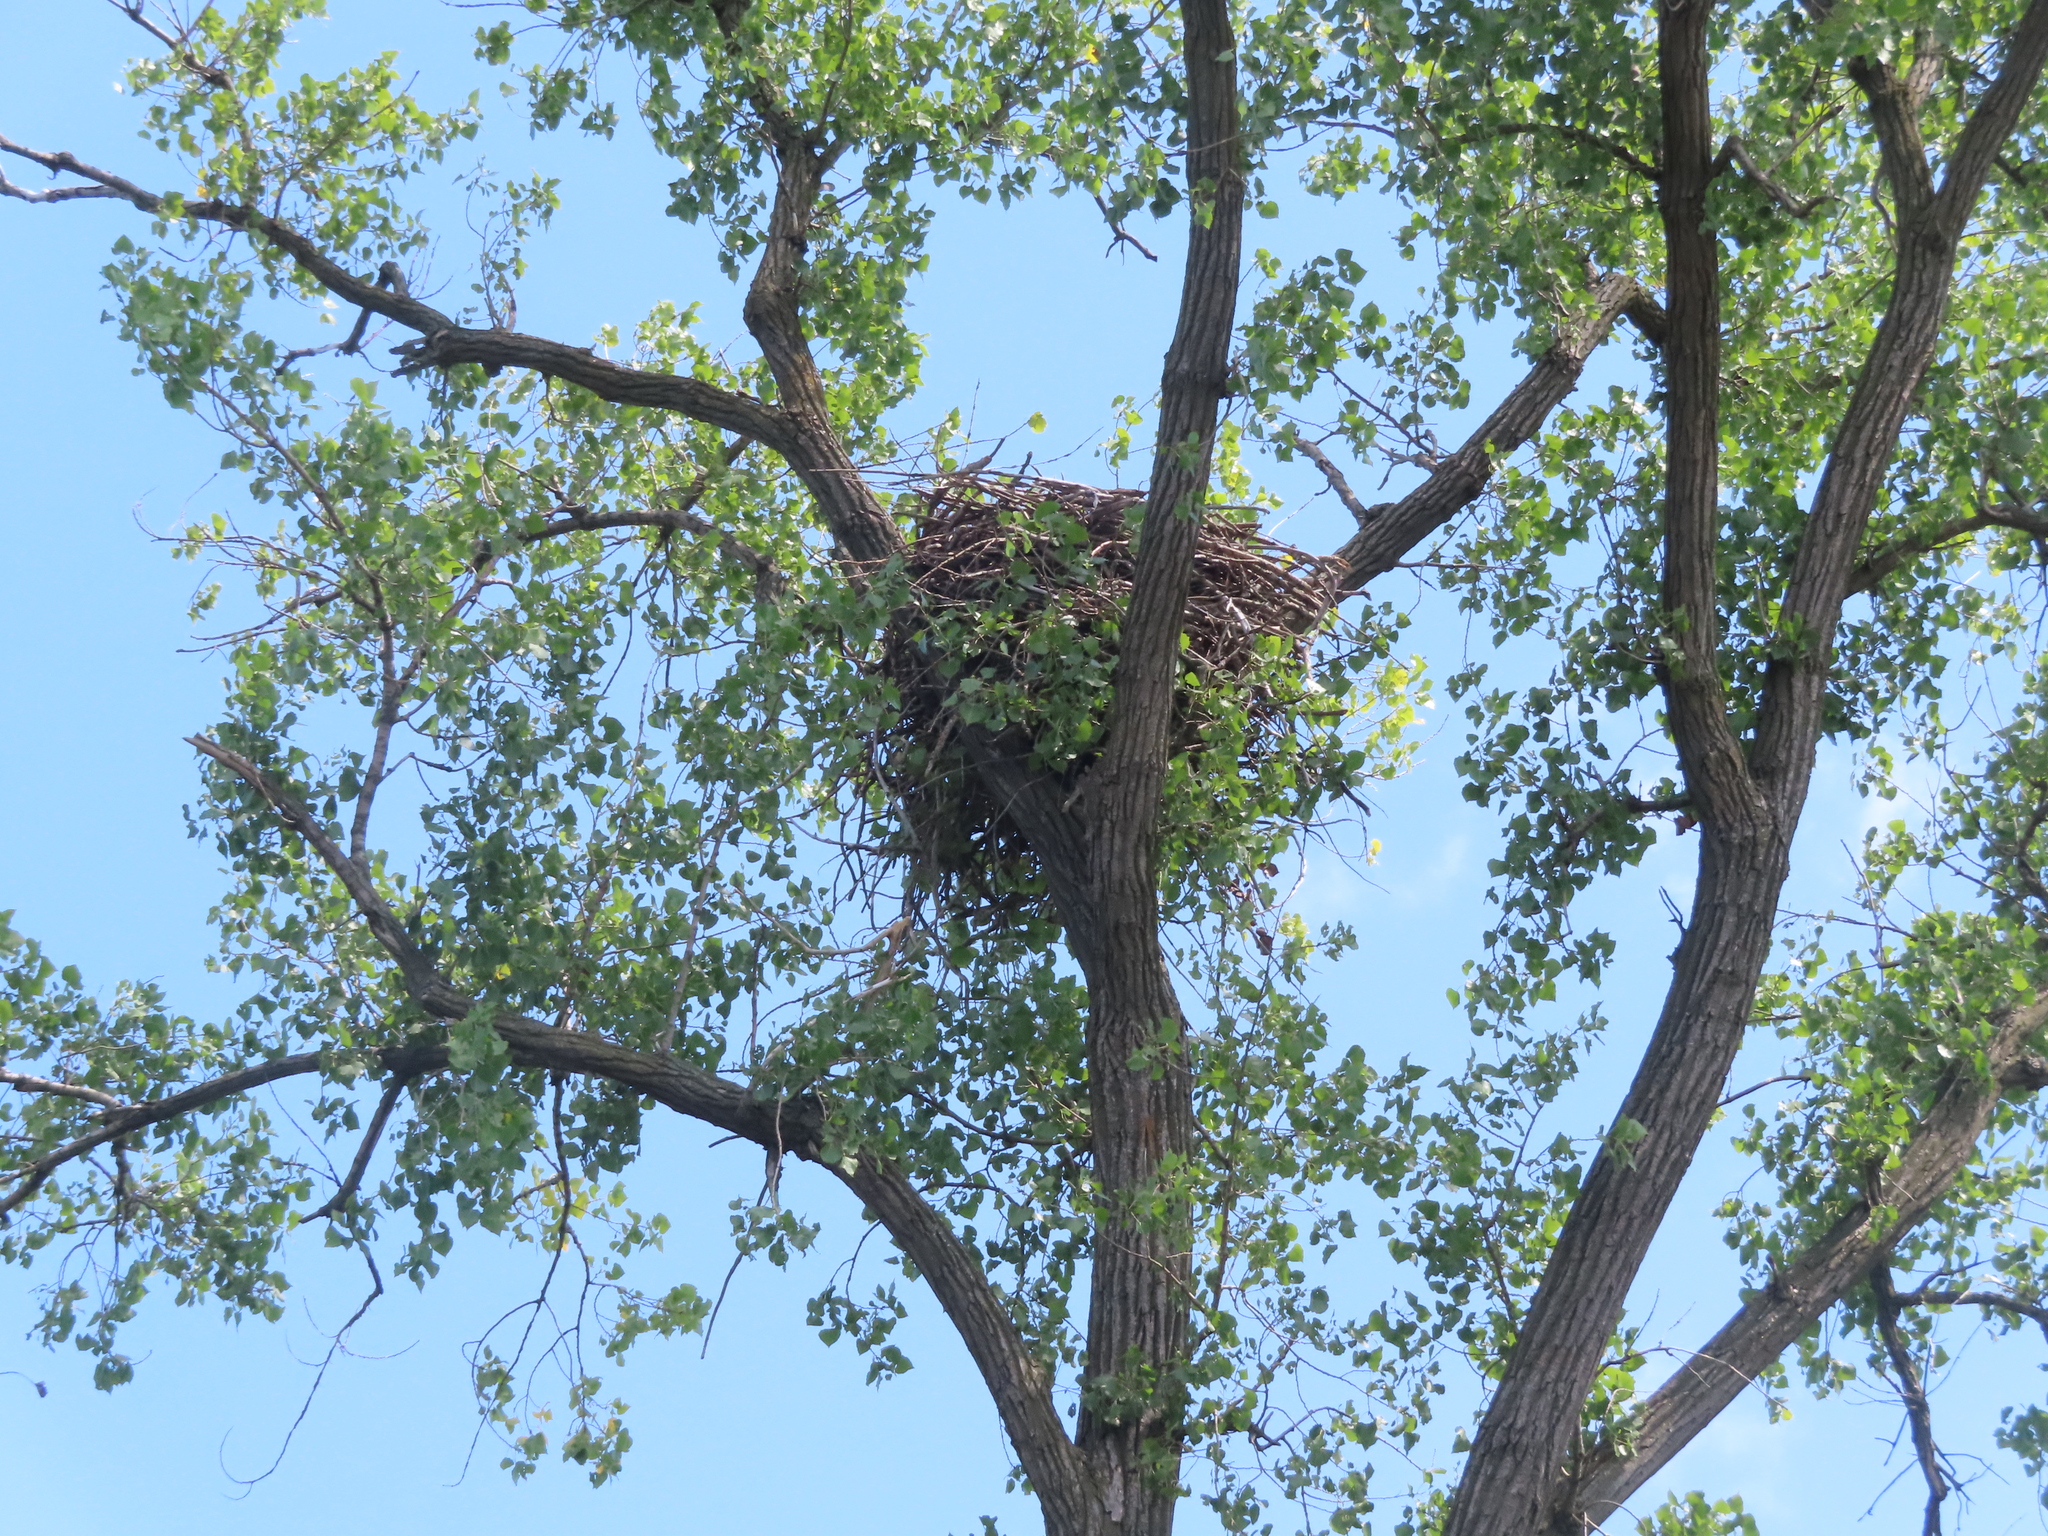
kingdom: Animalia
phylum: Chordata
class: Aves
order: Accipitriformes
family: Accipitridae
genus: Haliaeetus
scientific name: Haliaeetus leucocephalus
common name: Bald eagle
